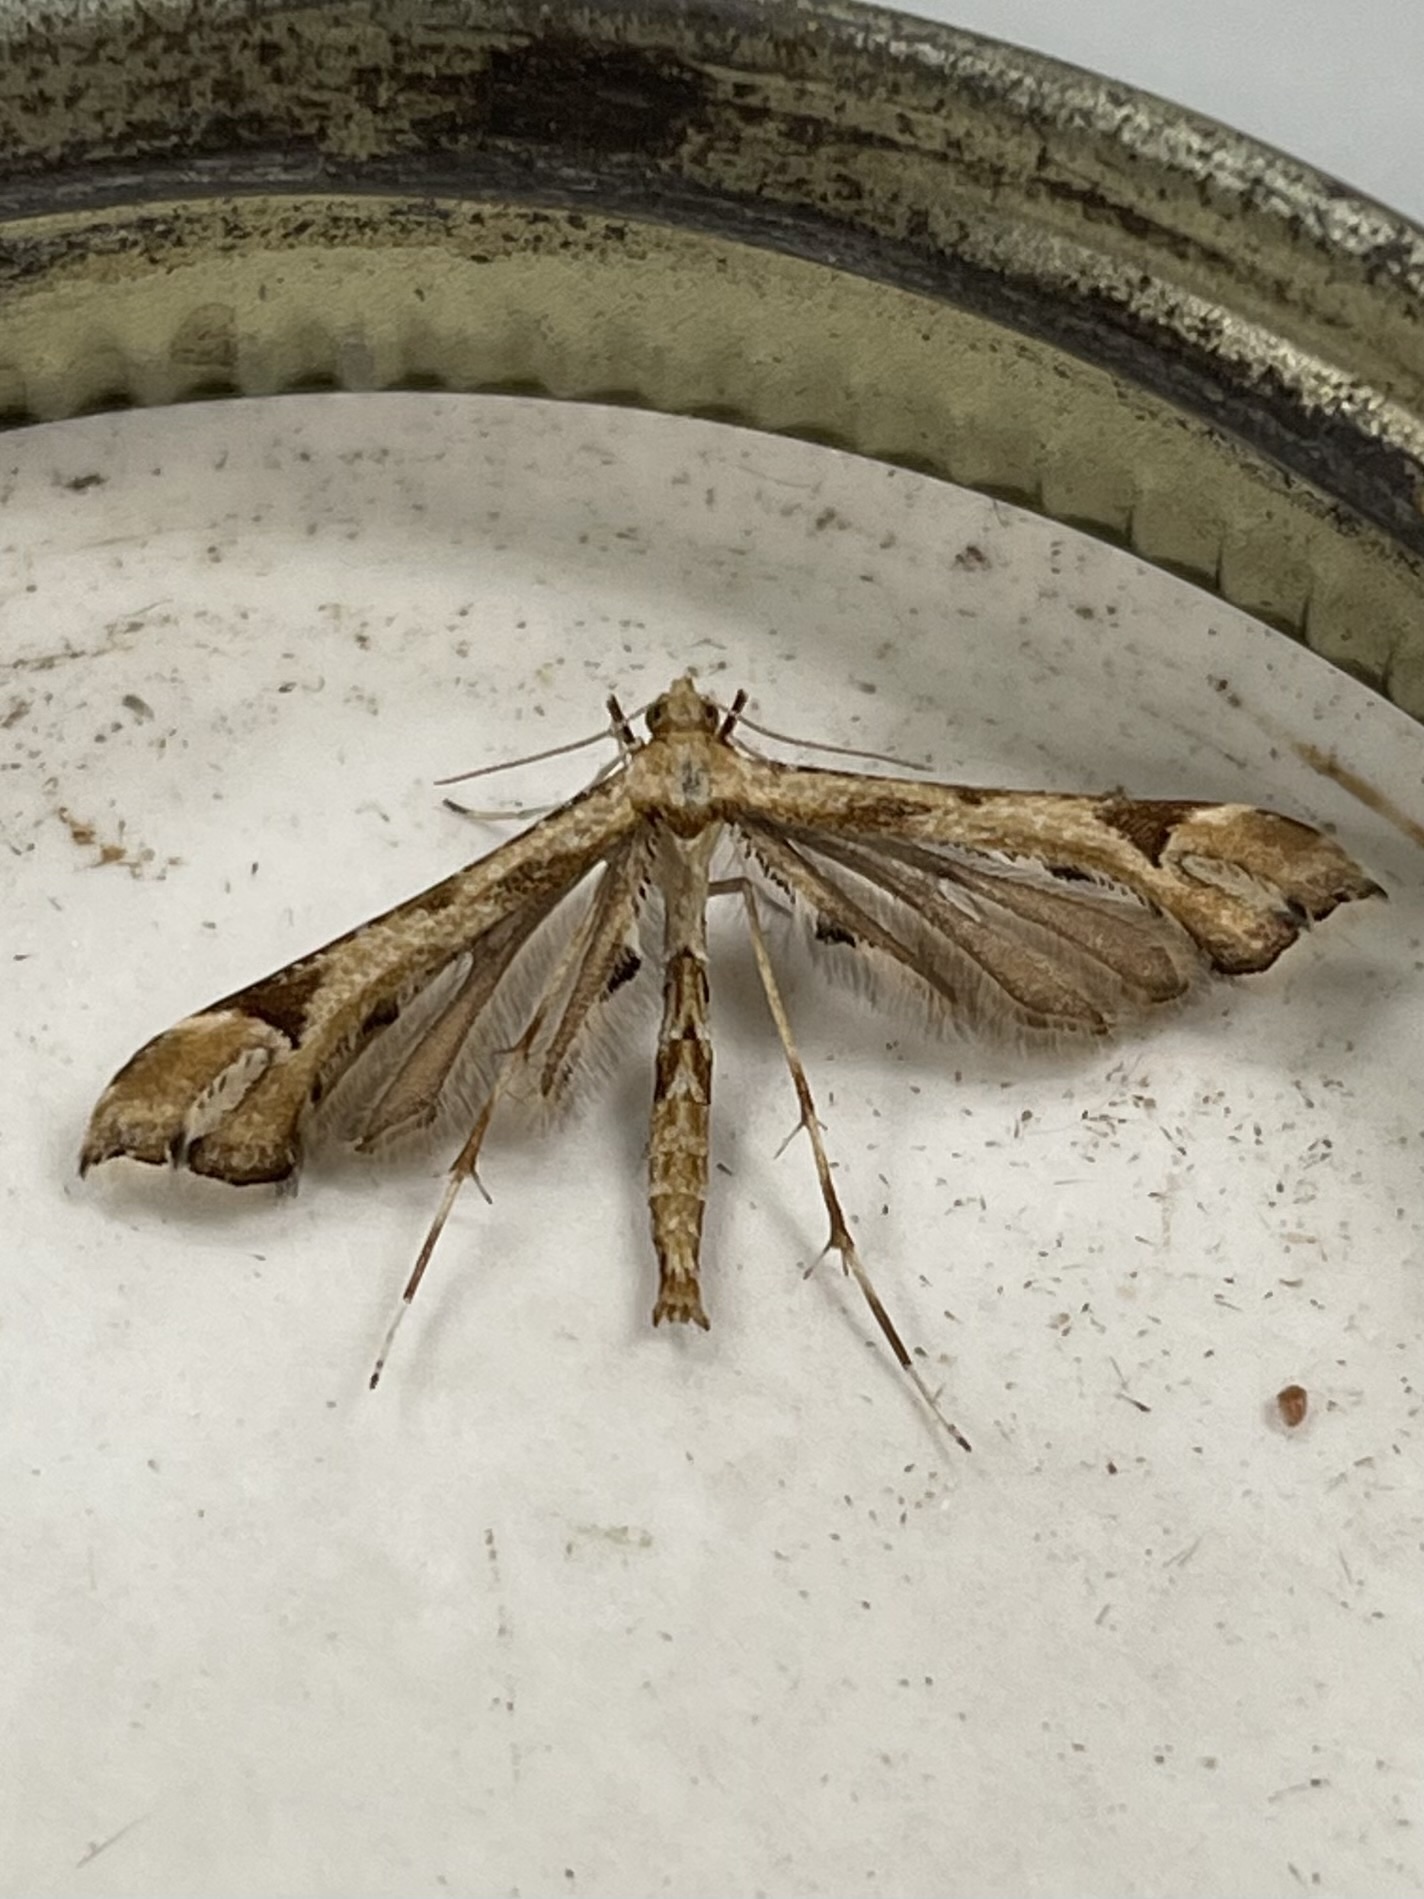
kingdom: Animalia
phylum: Arthropoda
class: Insecta
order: Lepidoptera
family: Pterophoridae
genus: Platyptilia
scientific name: Platyptilia carduidactylus
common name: Artichoke plume moth
